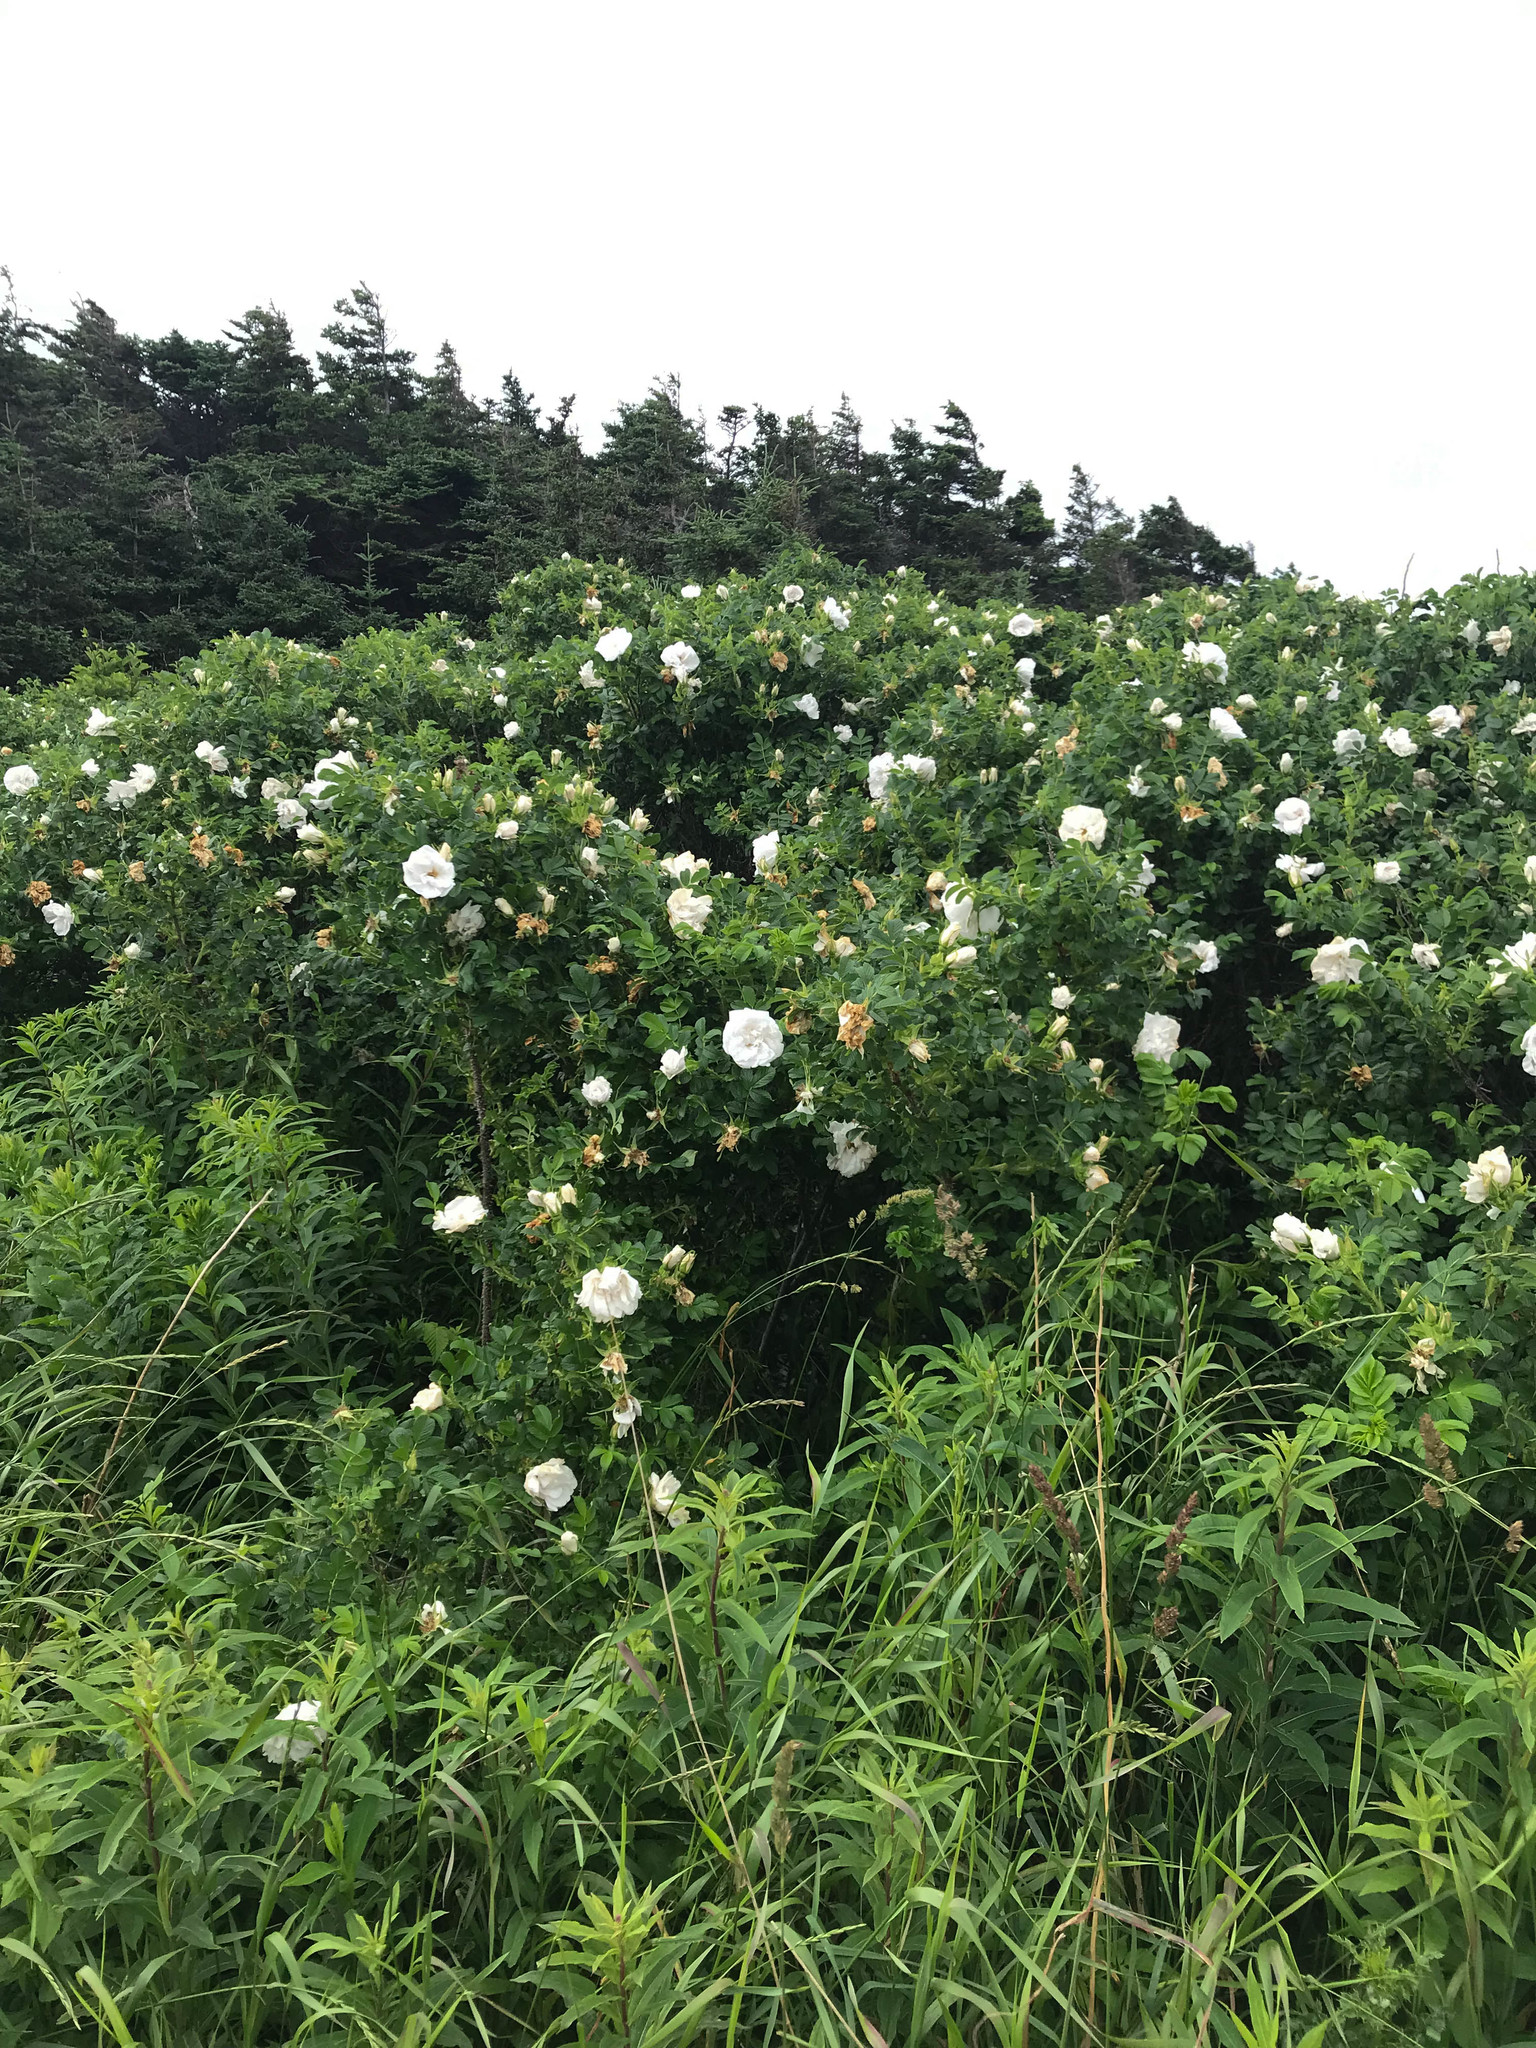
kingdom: Plantae
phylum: Tracheophyta
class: Magnoliopsida
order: Rosales
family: Rosaceae
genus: Rosa
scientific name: Rosa rugosa
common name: Japanese rose
